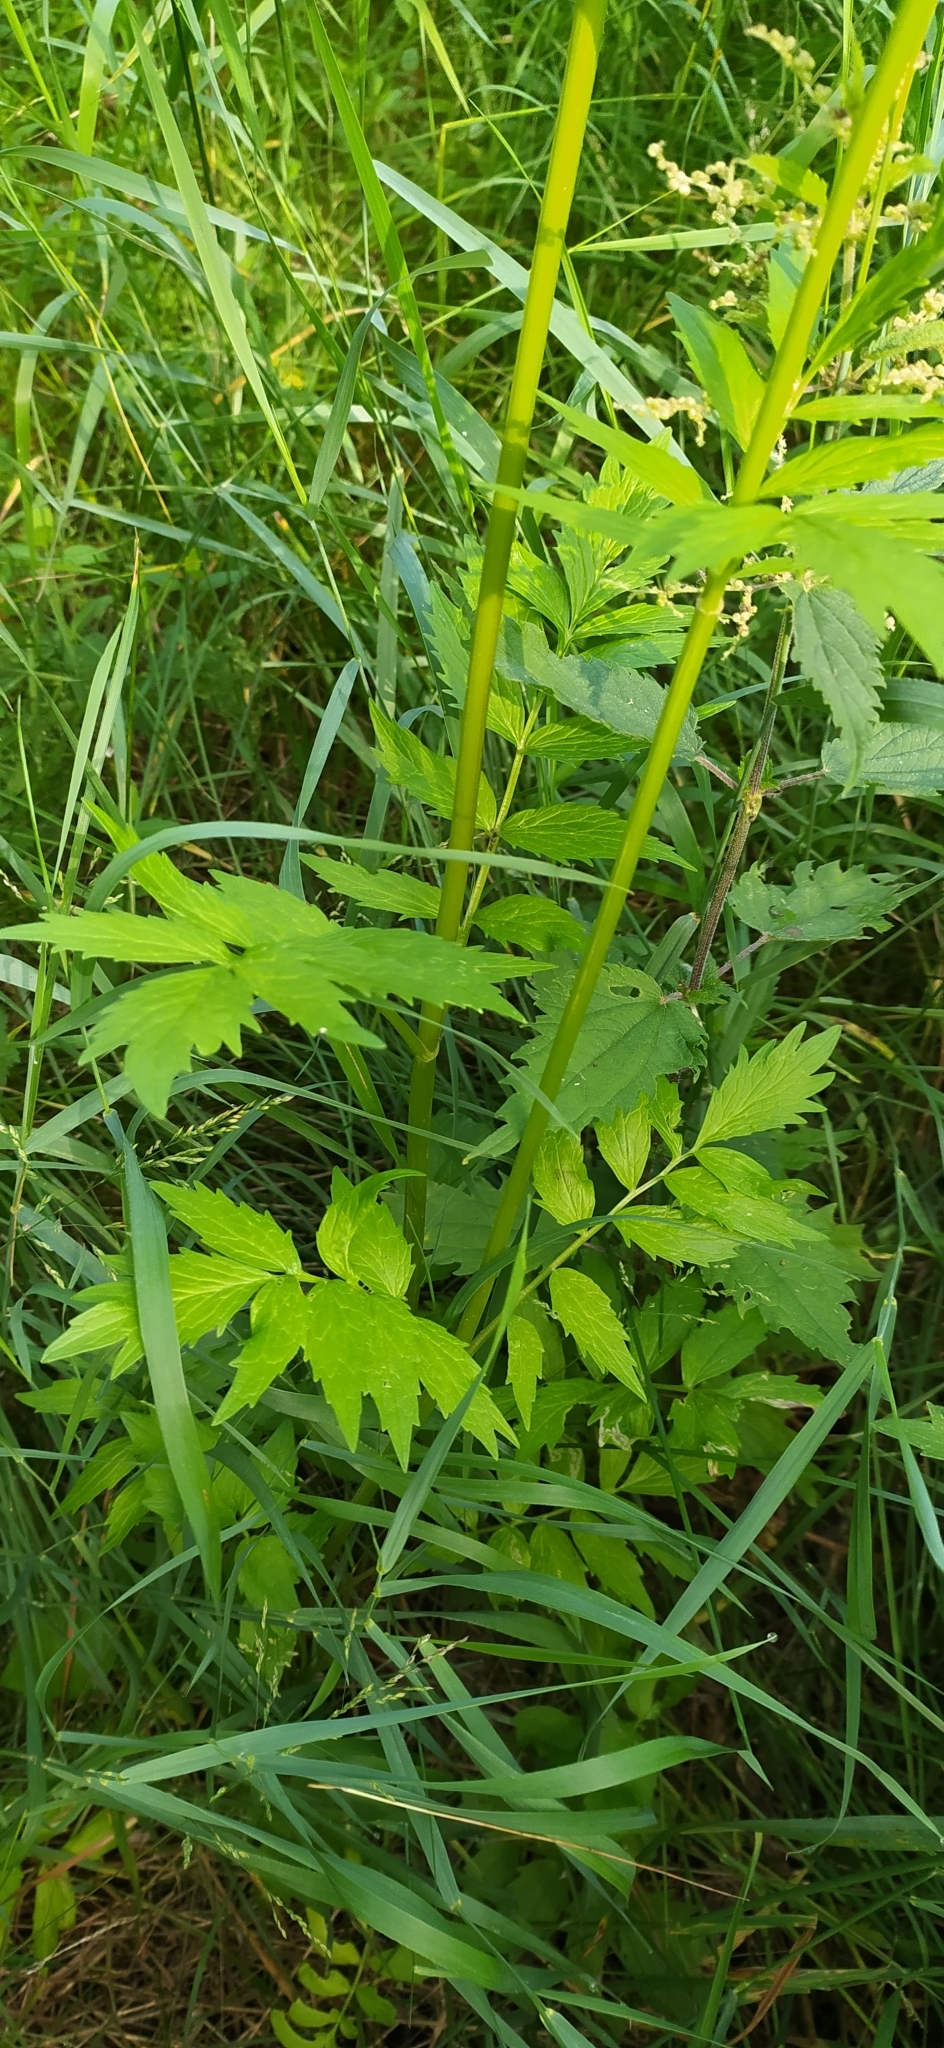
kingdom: Plantae
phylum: Tracheophyta
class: Magnoliopsida
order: Dipsacales
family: Caprifoliaceae
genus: Valeriana
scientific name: Valeriana wolgensis
